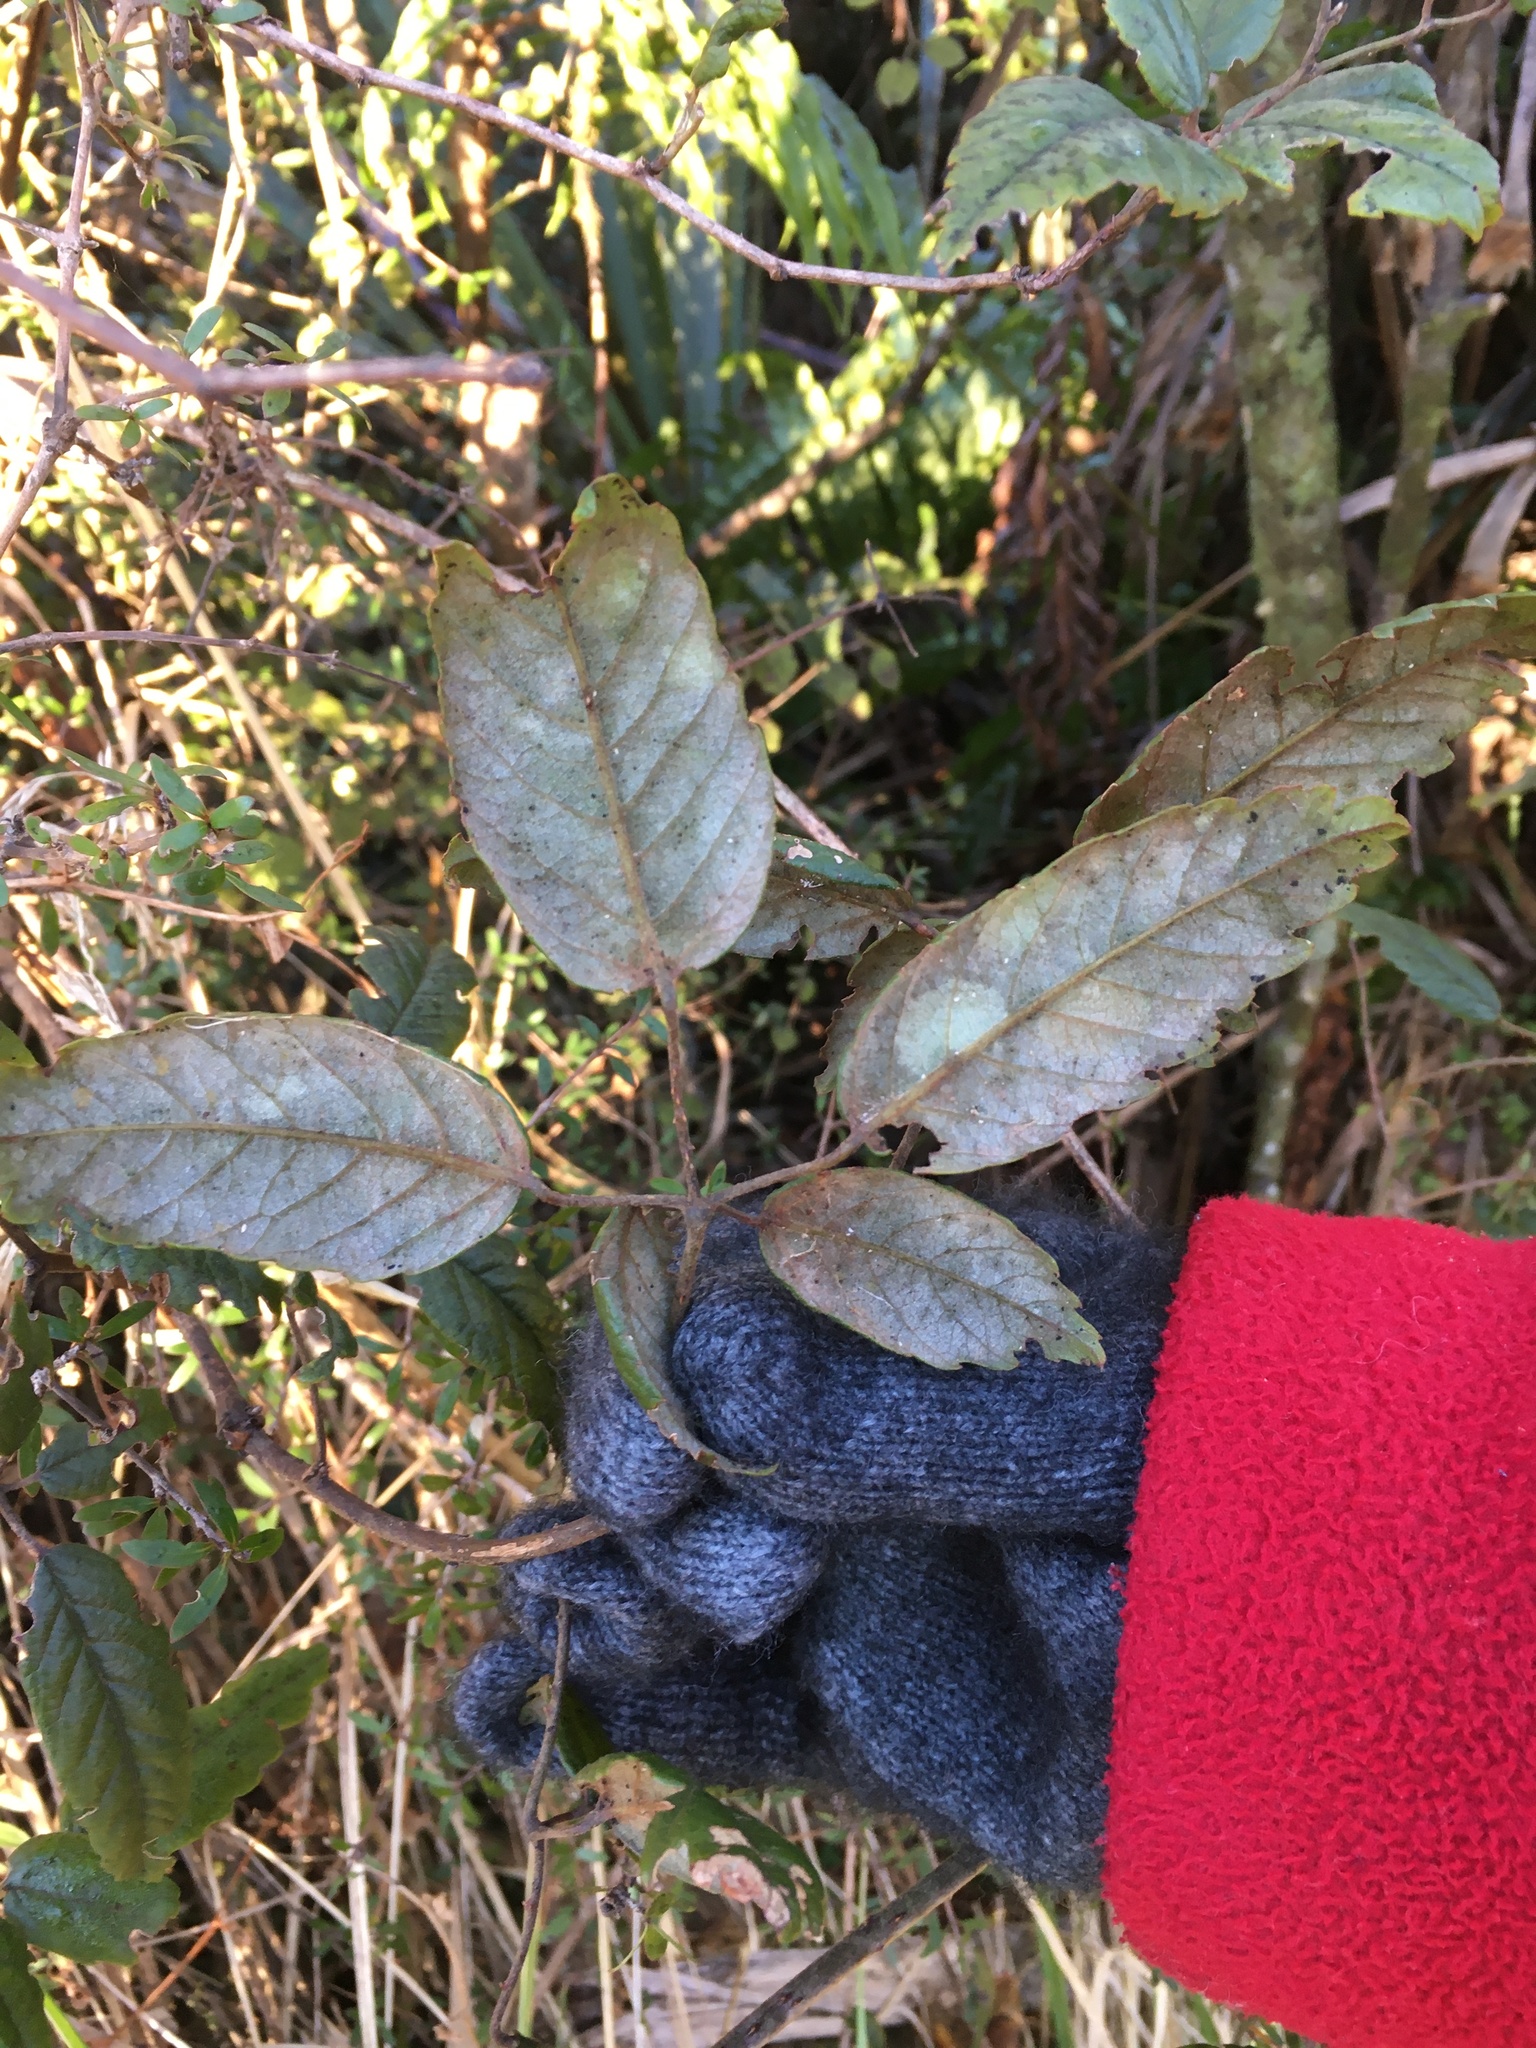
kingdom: Plantae
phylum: Tracheophyta
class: Magnoliopsida
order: Rosales
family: Rosaceae
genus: Rubus
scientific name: Rubus schmidelioides
